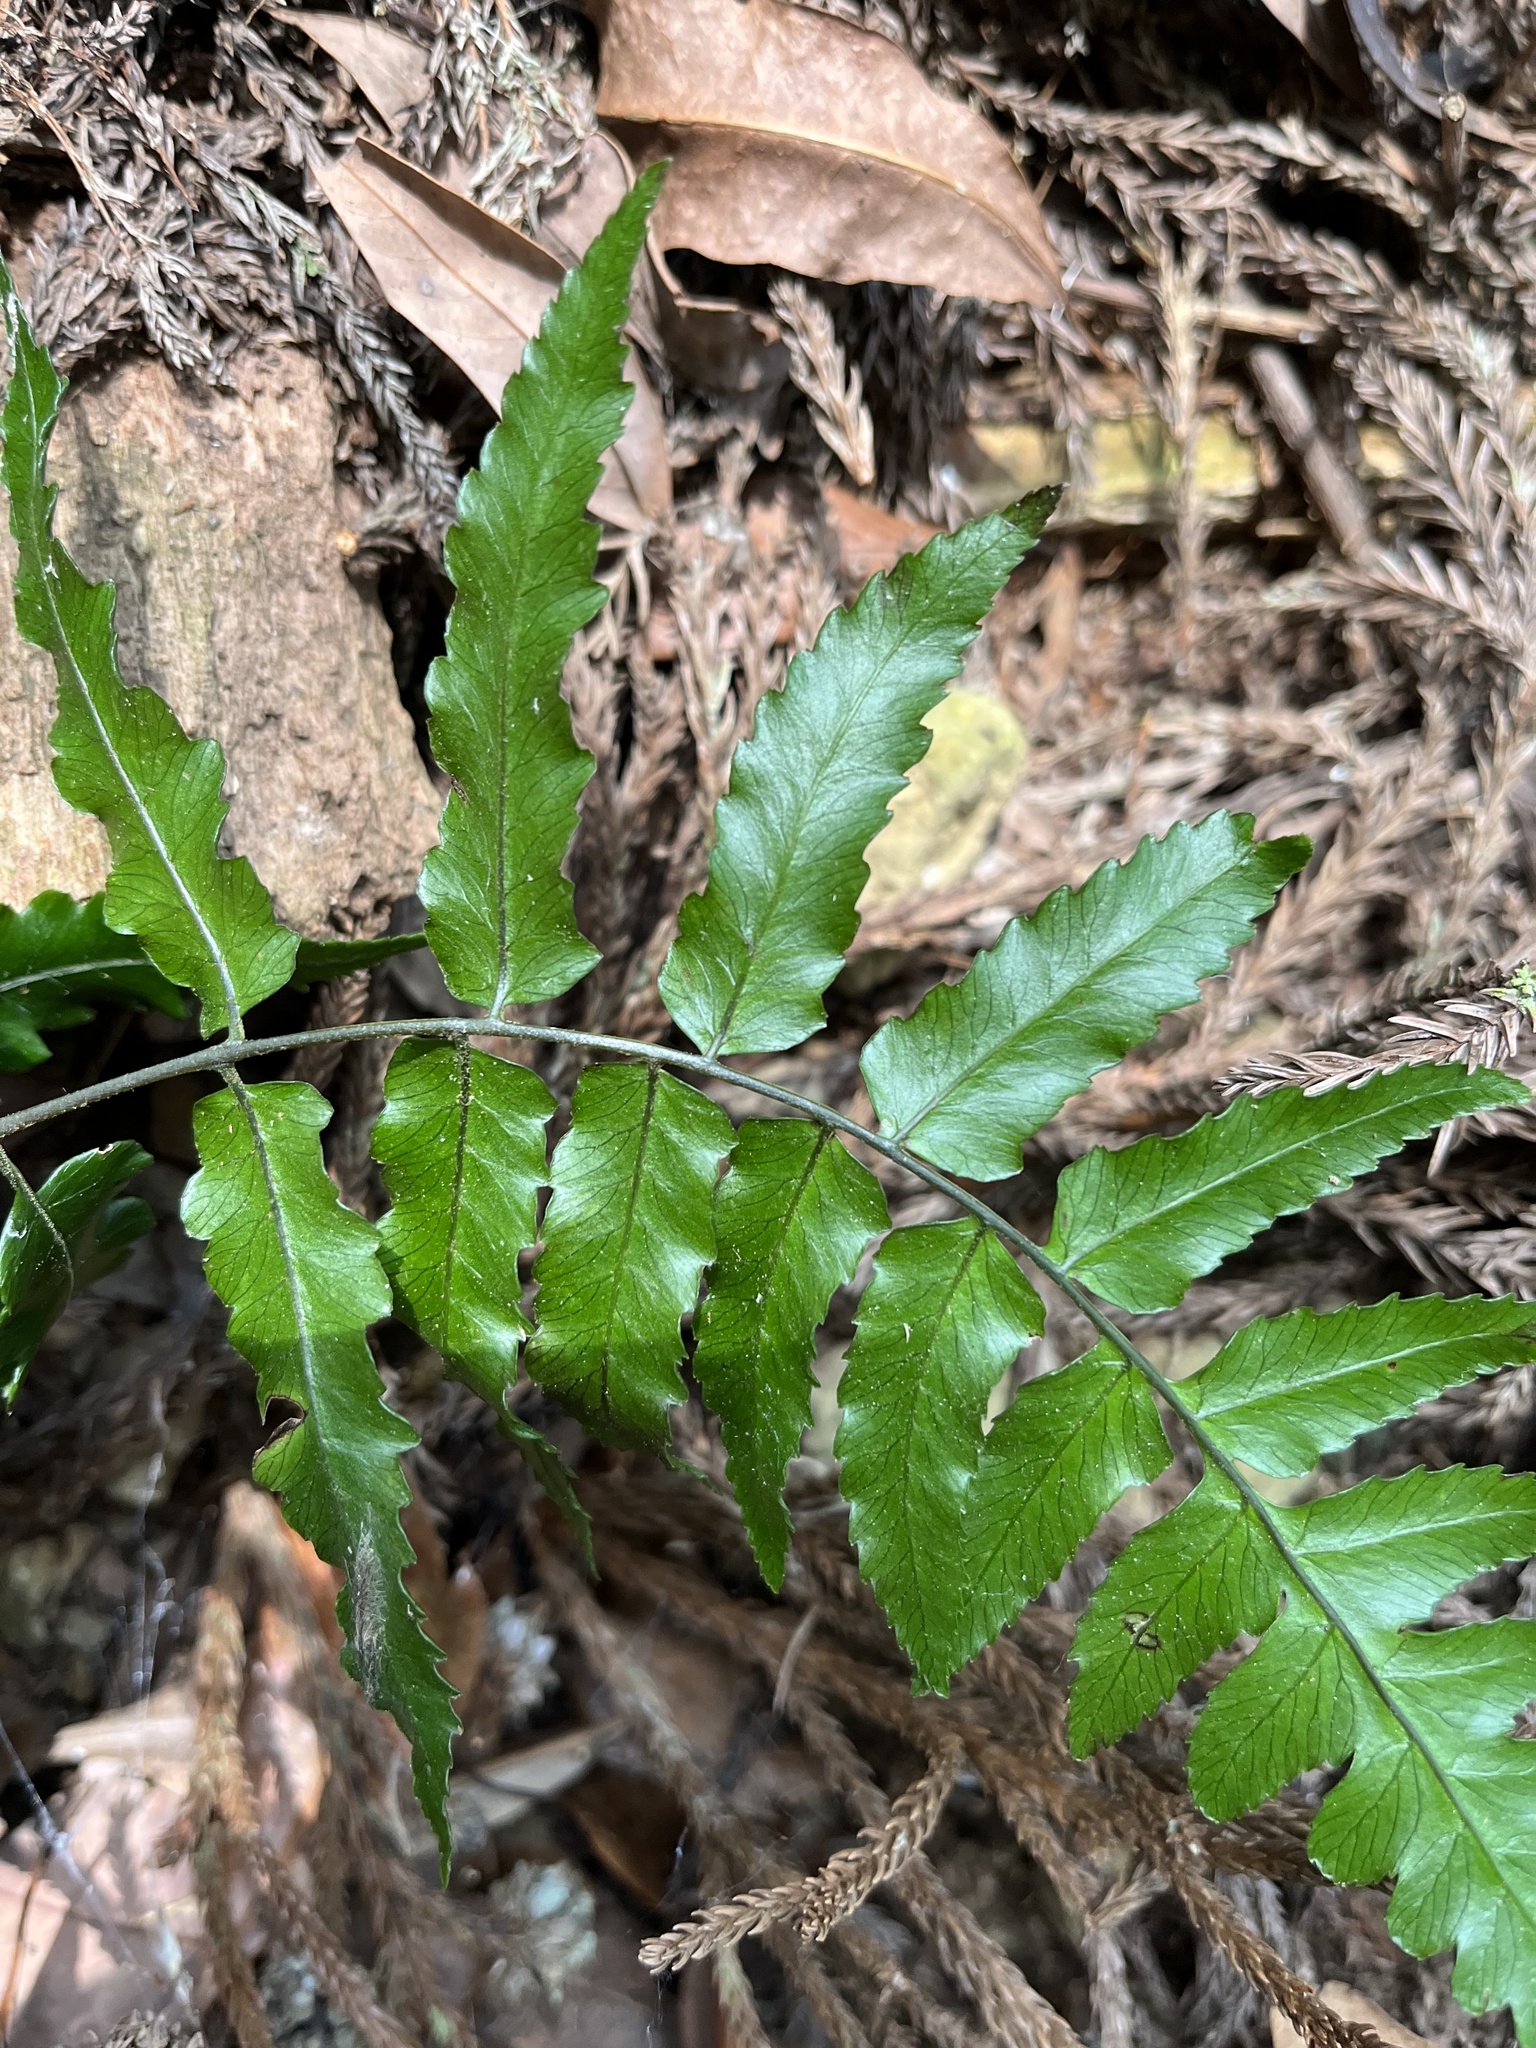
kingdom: Plantae
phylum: Tracheophyta
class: Polypodiopsida
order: Polypodiales
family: Athyriaceae
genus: Diplazium
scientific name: Diplazium fauriei
